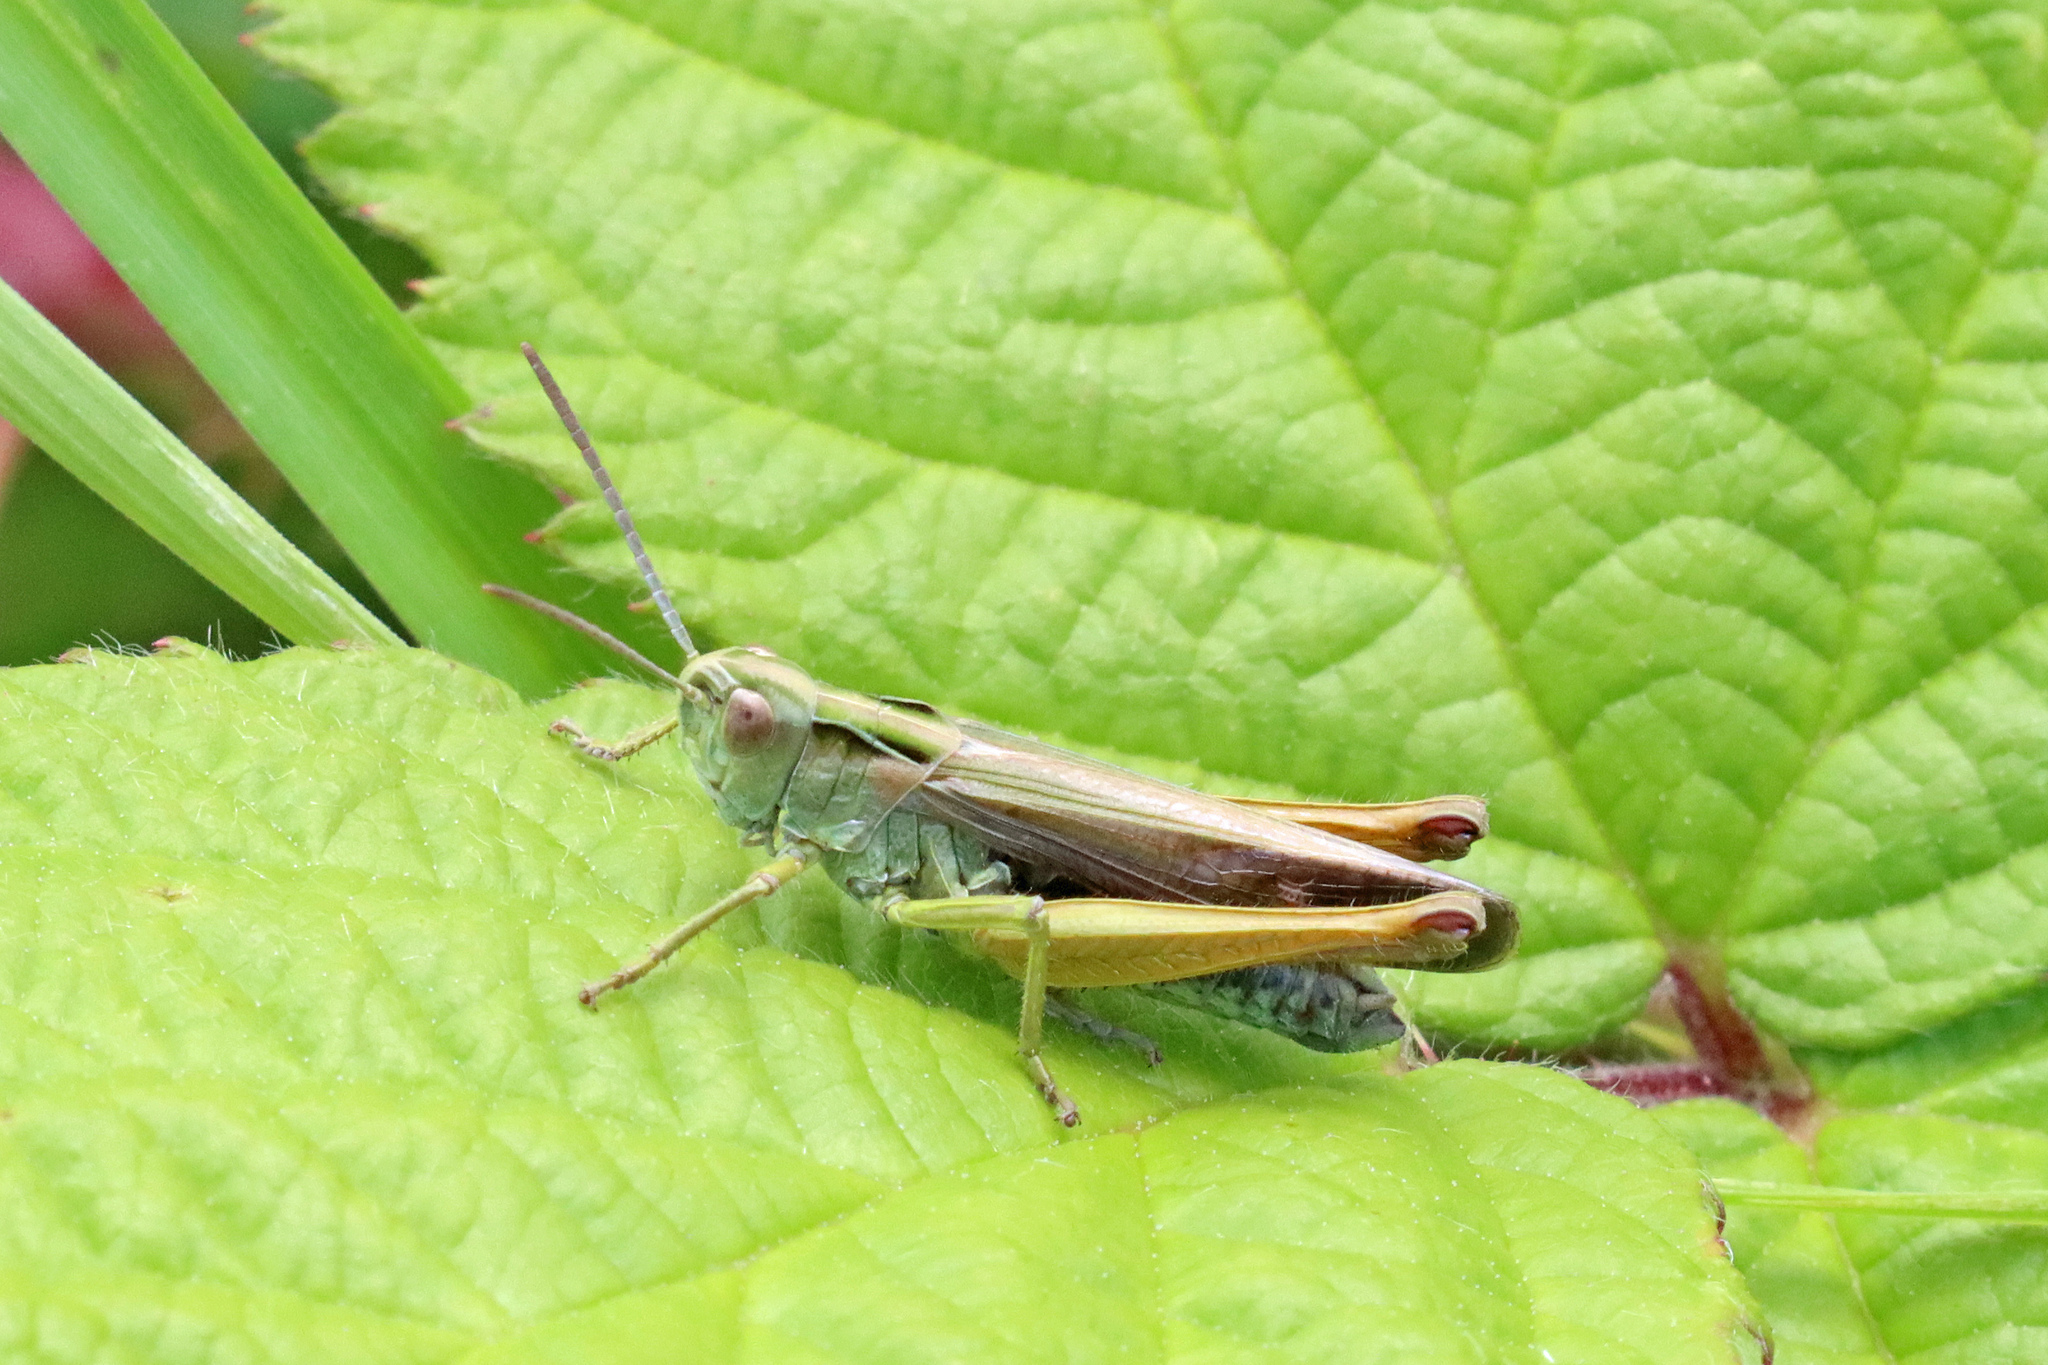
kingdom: Animalia
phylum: Arthropoda
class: Insecta
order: Orthoptera
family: Acrididae
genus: Omocestus
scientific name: Omocestus viridulus
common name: Common green grasshopper
